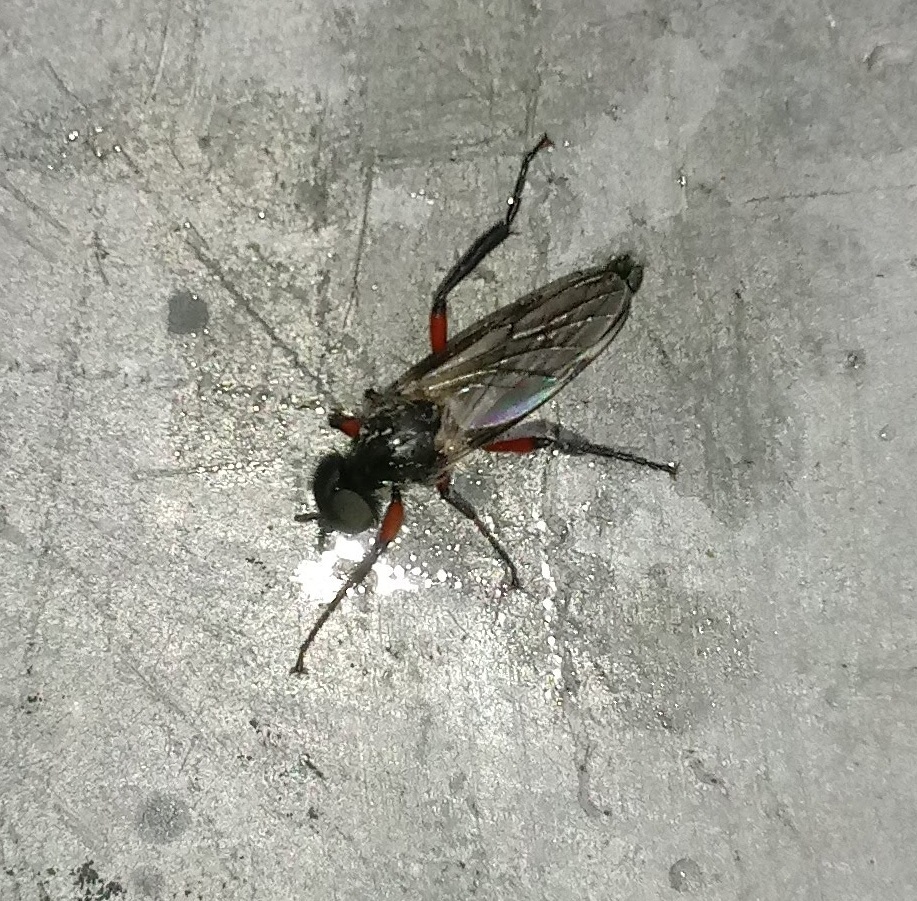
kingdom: Animalia
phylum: Arthropoda
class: Insecta
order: Diptera
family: Bibionidae
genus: Bibio
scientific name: Bibio femoratus
